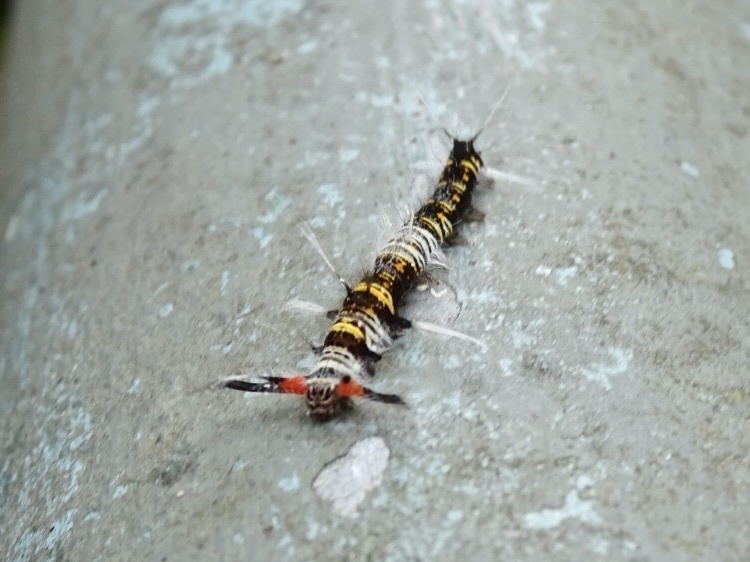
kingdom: Animalia
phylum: Arthropoda
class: Insecta
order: Lepidoptera
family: Lasiocampidae
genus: Kunugia
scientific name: Kunugia divaricata
